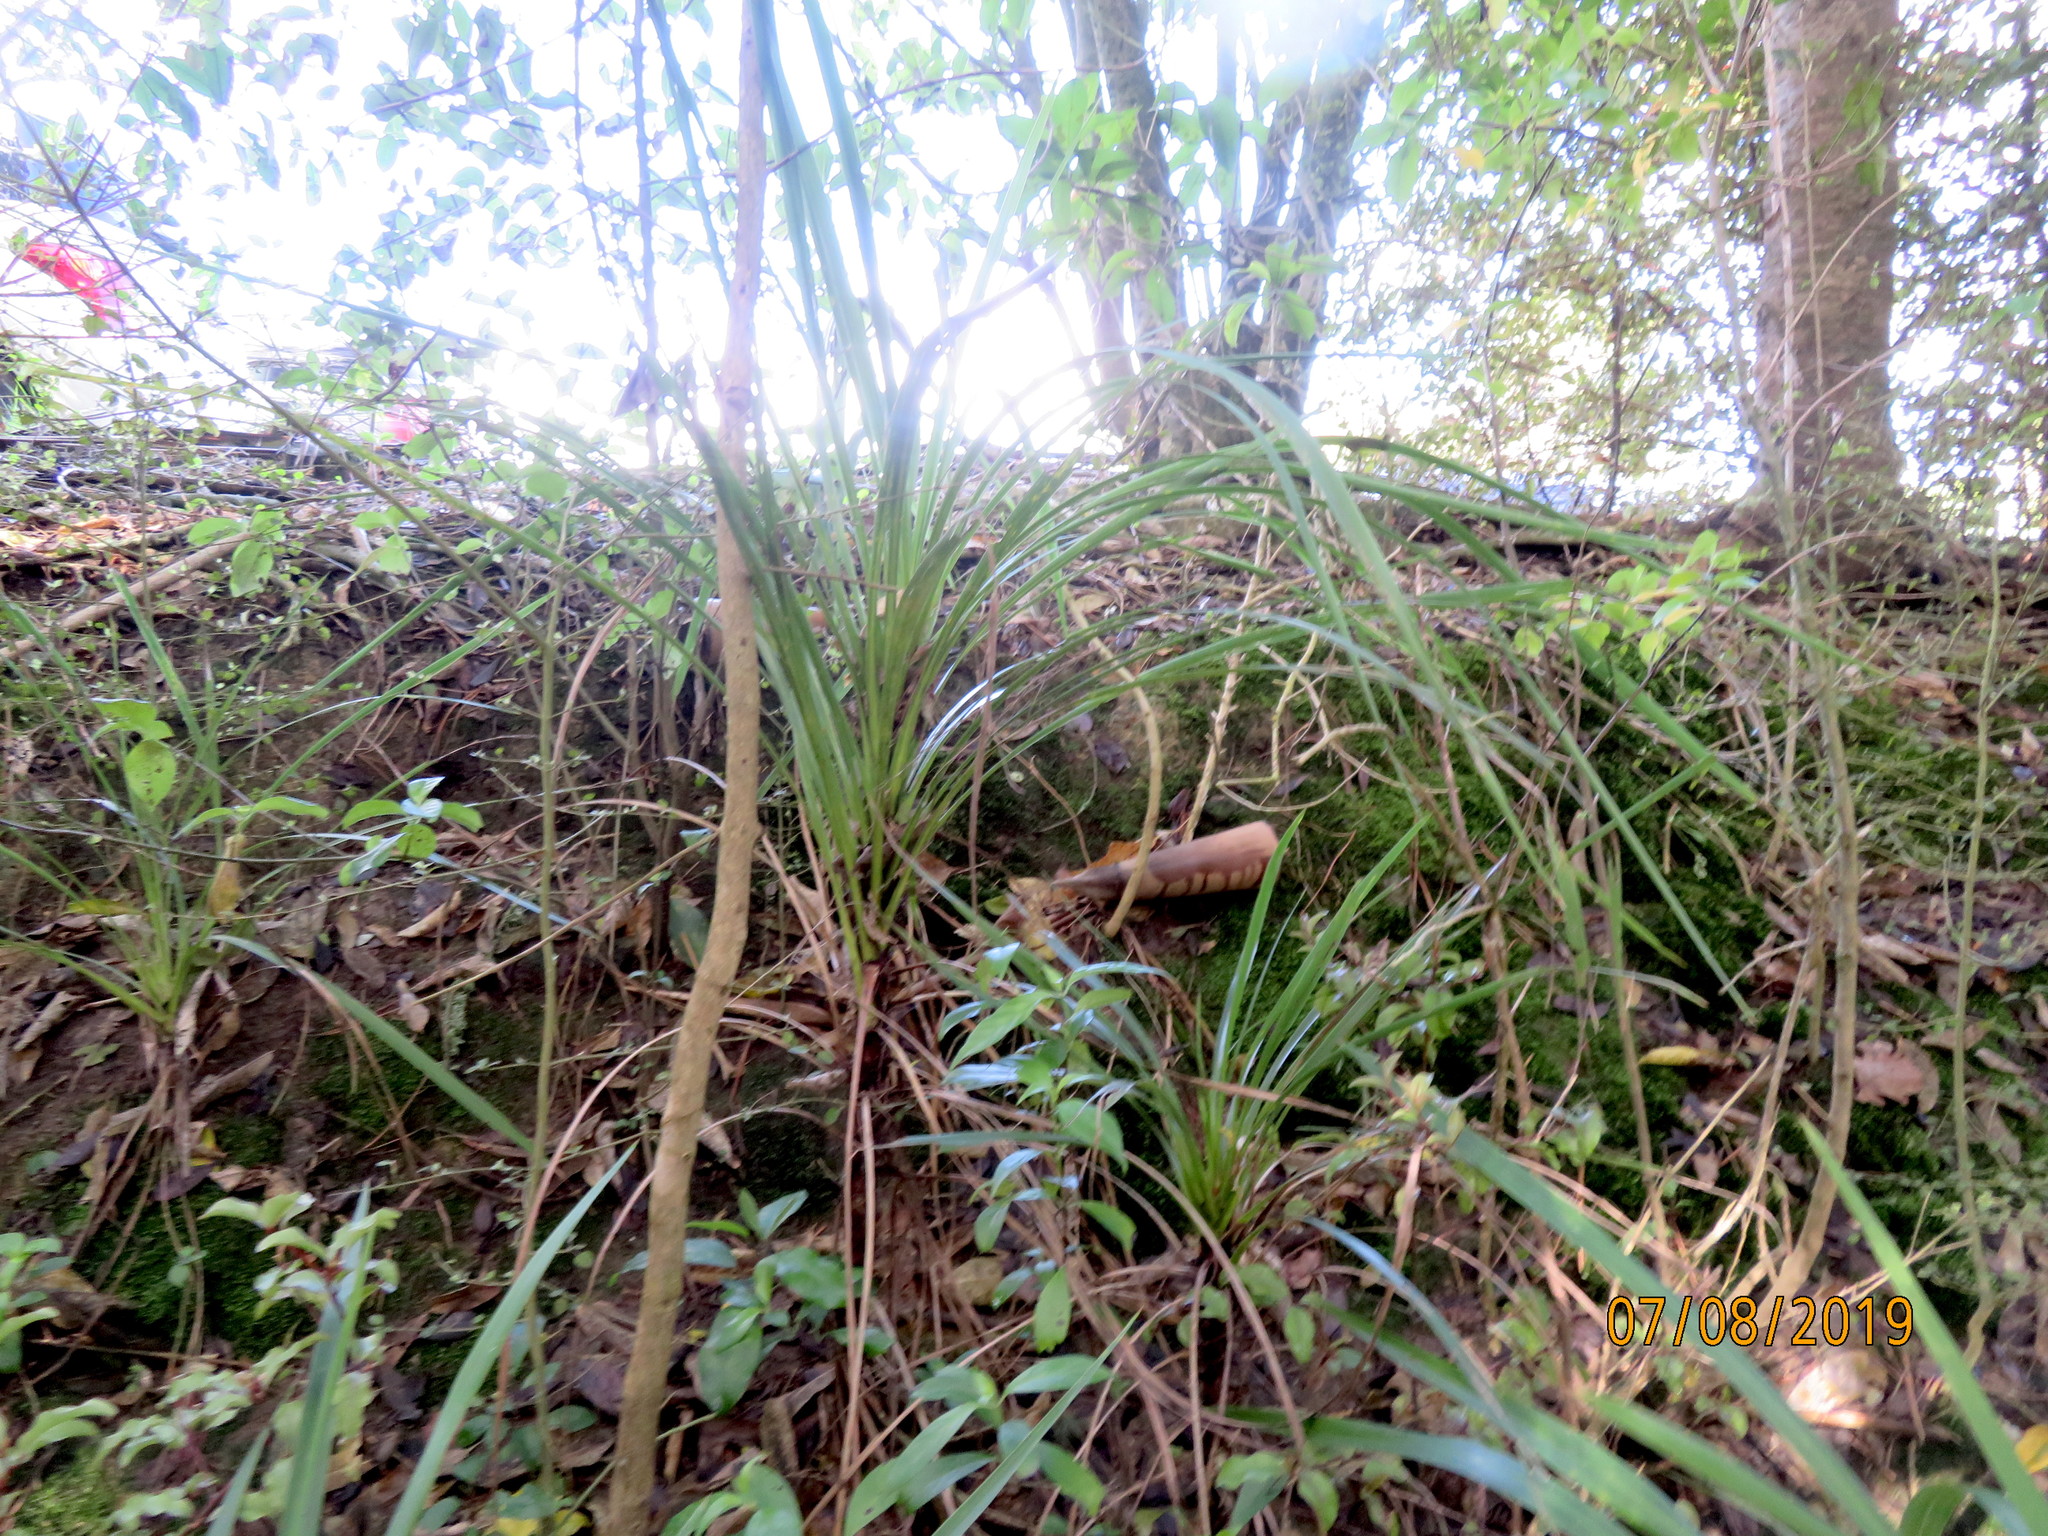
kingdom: Plantae
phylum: Tracheophyta
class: Liliopsida
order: Asparagales
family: Asparagaceae
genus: Cordyline
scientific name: Cordyline australis
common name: Cabbage-palm
